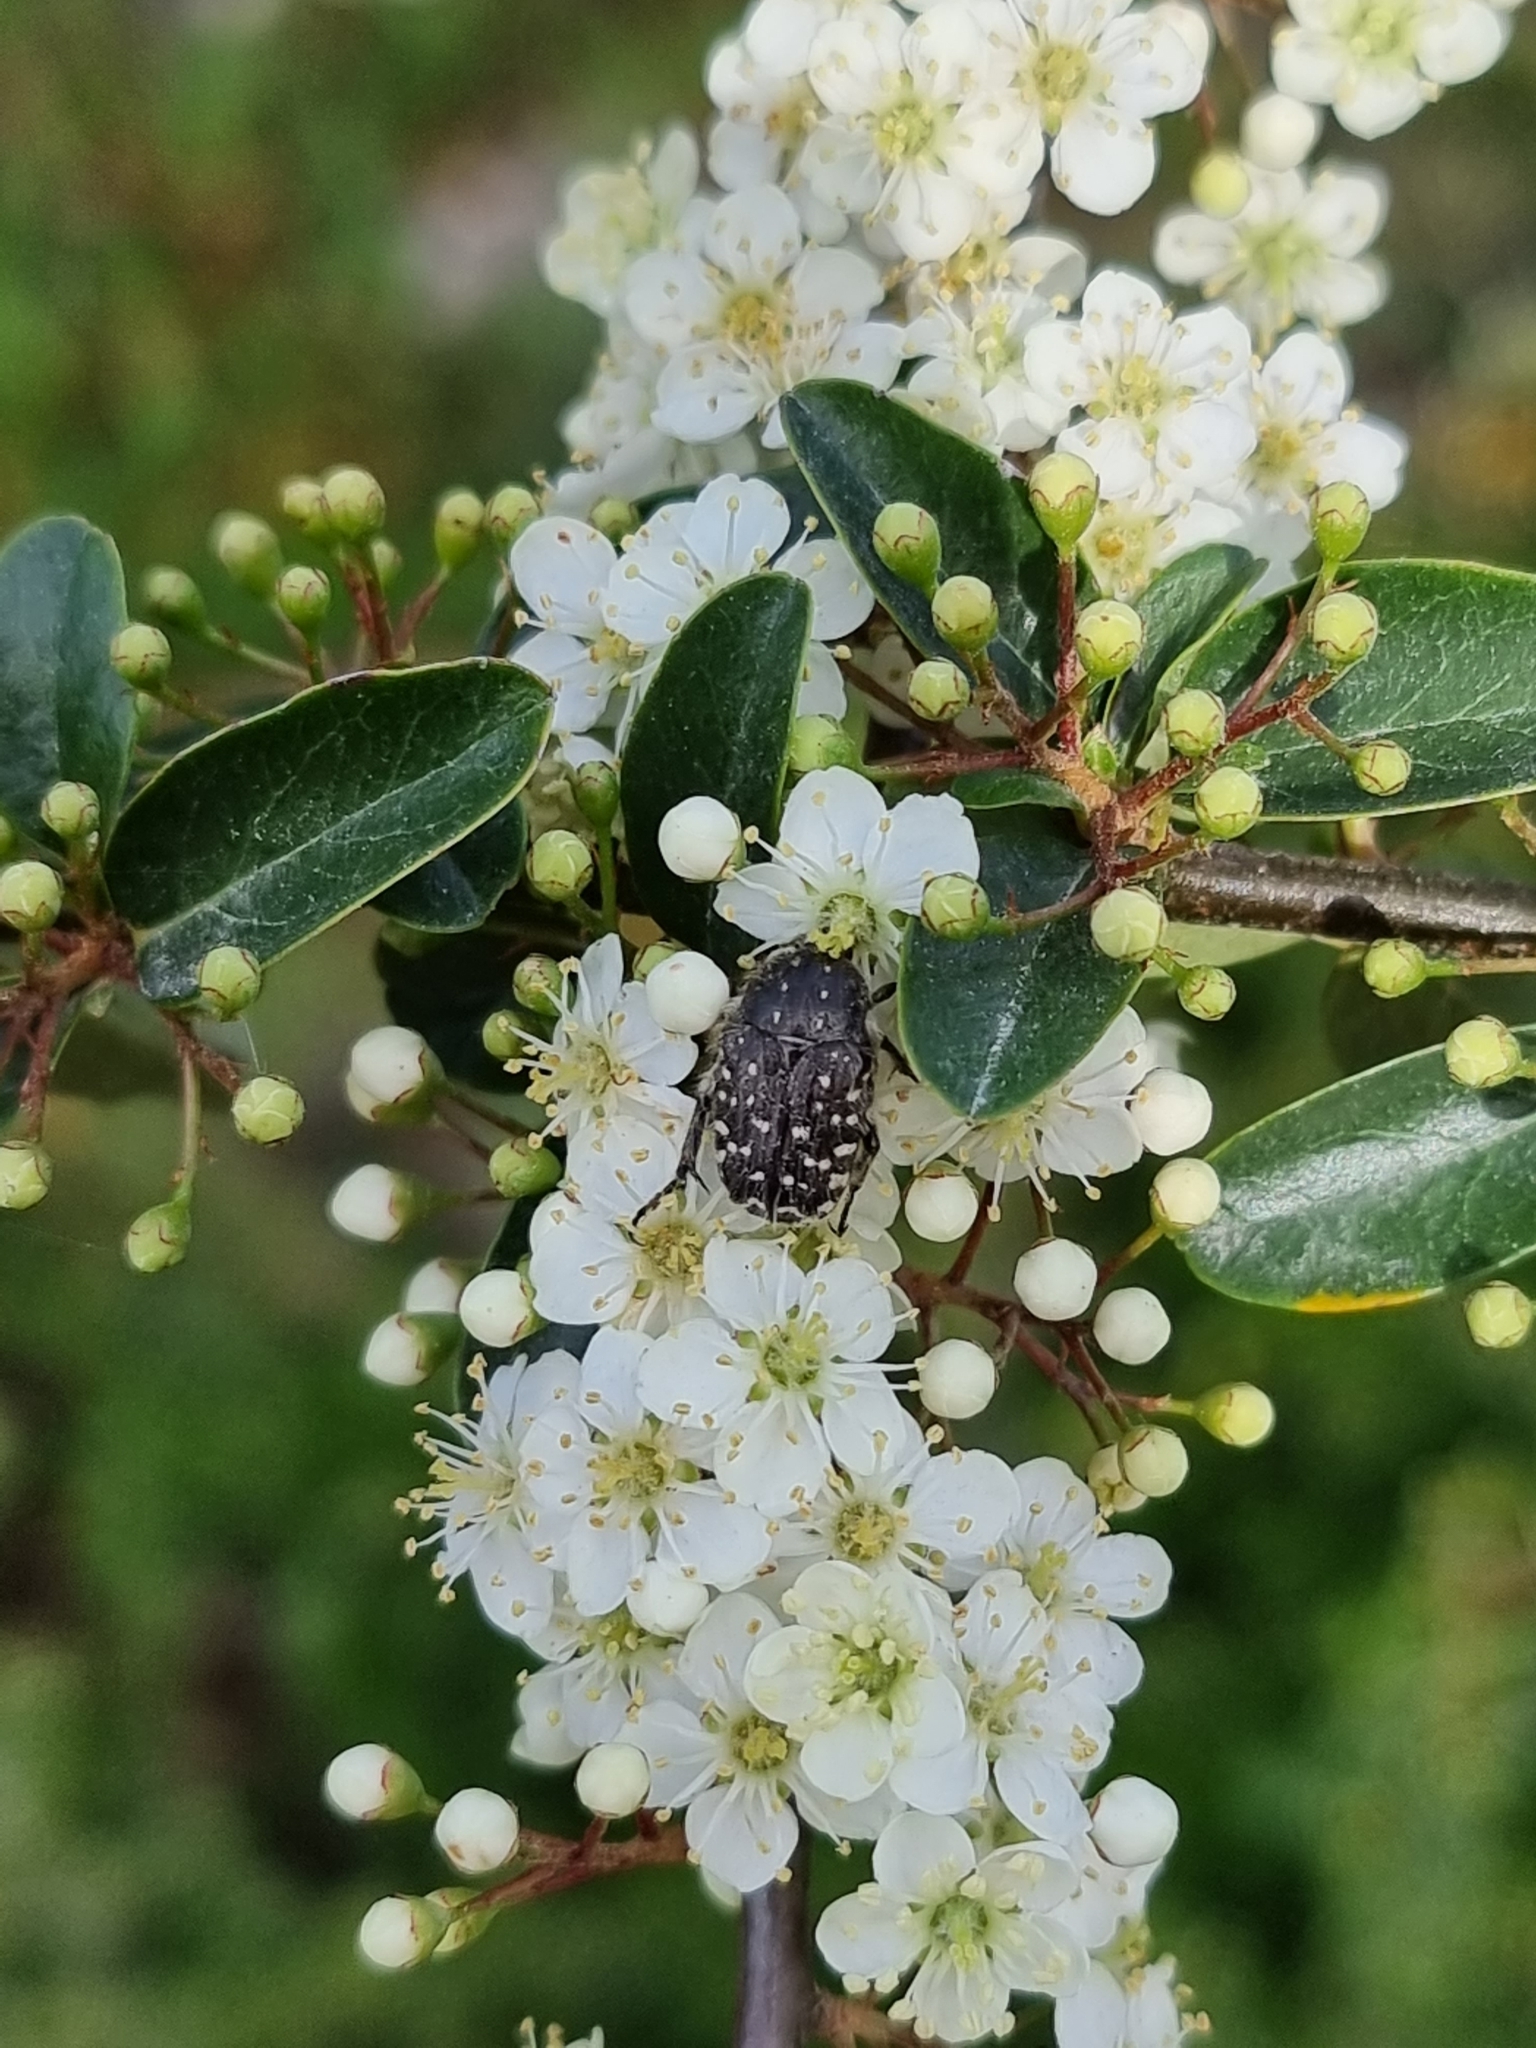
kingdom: Animalia
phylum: Arthropoda
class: Insecta
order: Coleoptera
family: Scarabaeidae
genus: Oxythyrea
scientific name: Oxythyrea funesta
